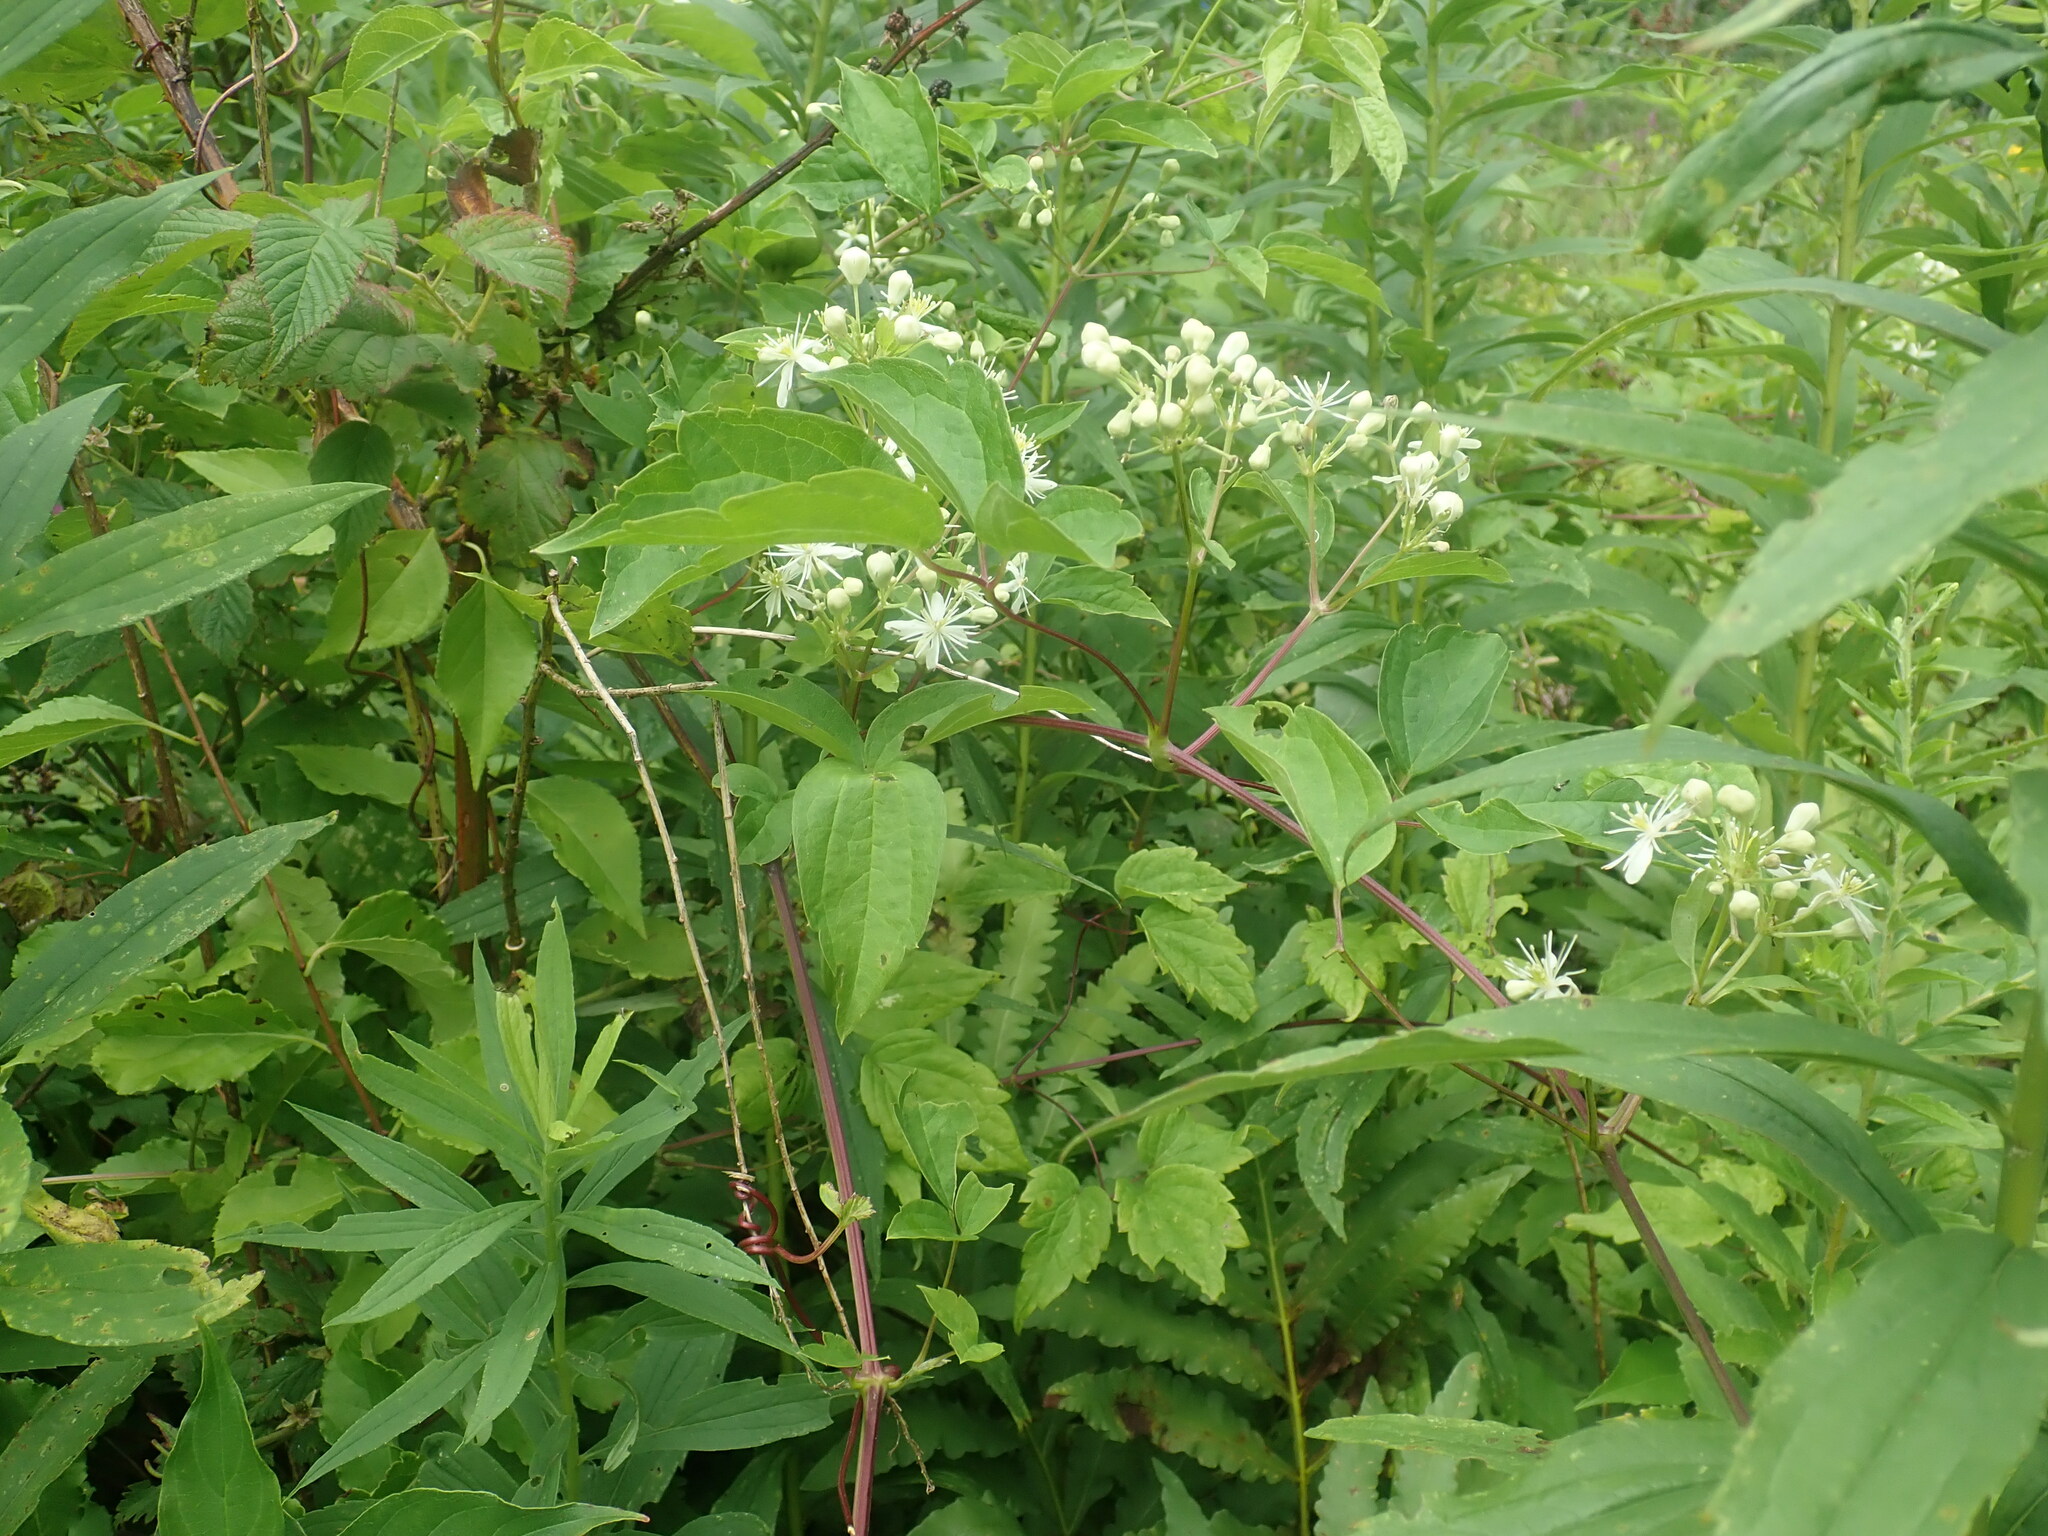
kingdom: Plantae
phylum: Tracheophyta
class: Magnoliopsida
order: Ranunculales
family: Ranunculaceae
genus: Clematis
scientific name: Clematis virginiana
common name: Virgin's-bower
